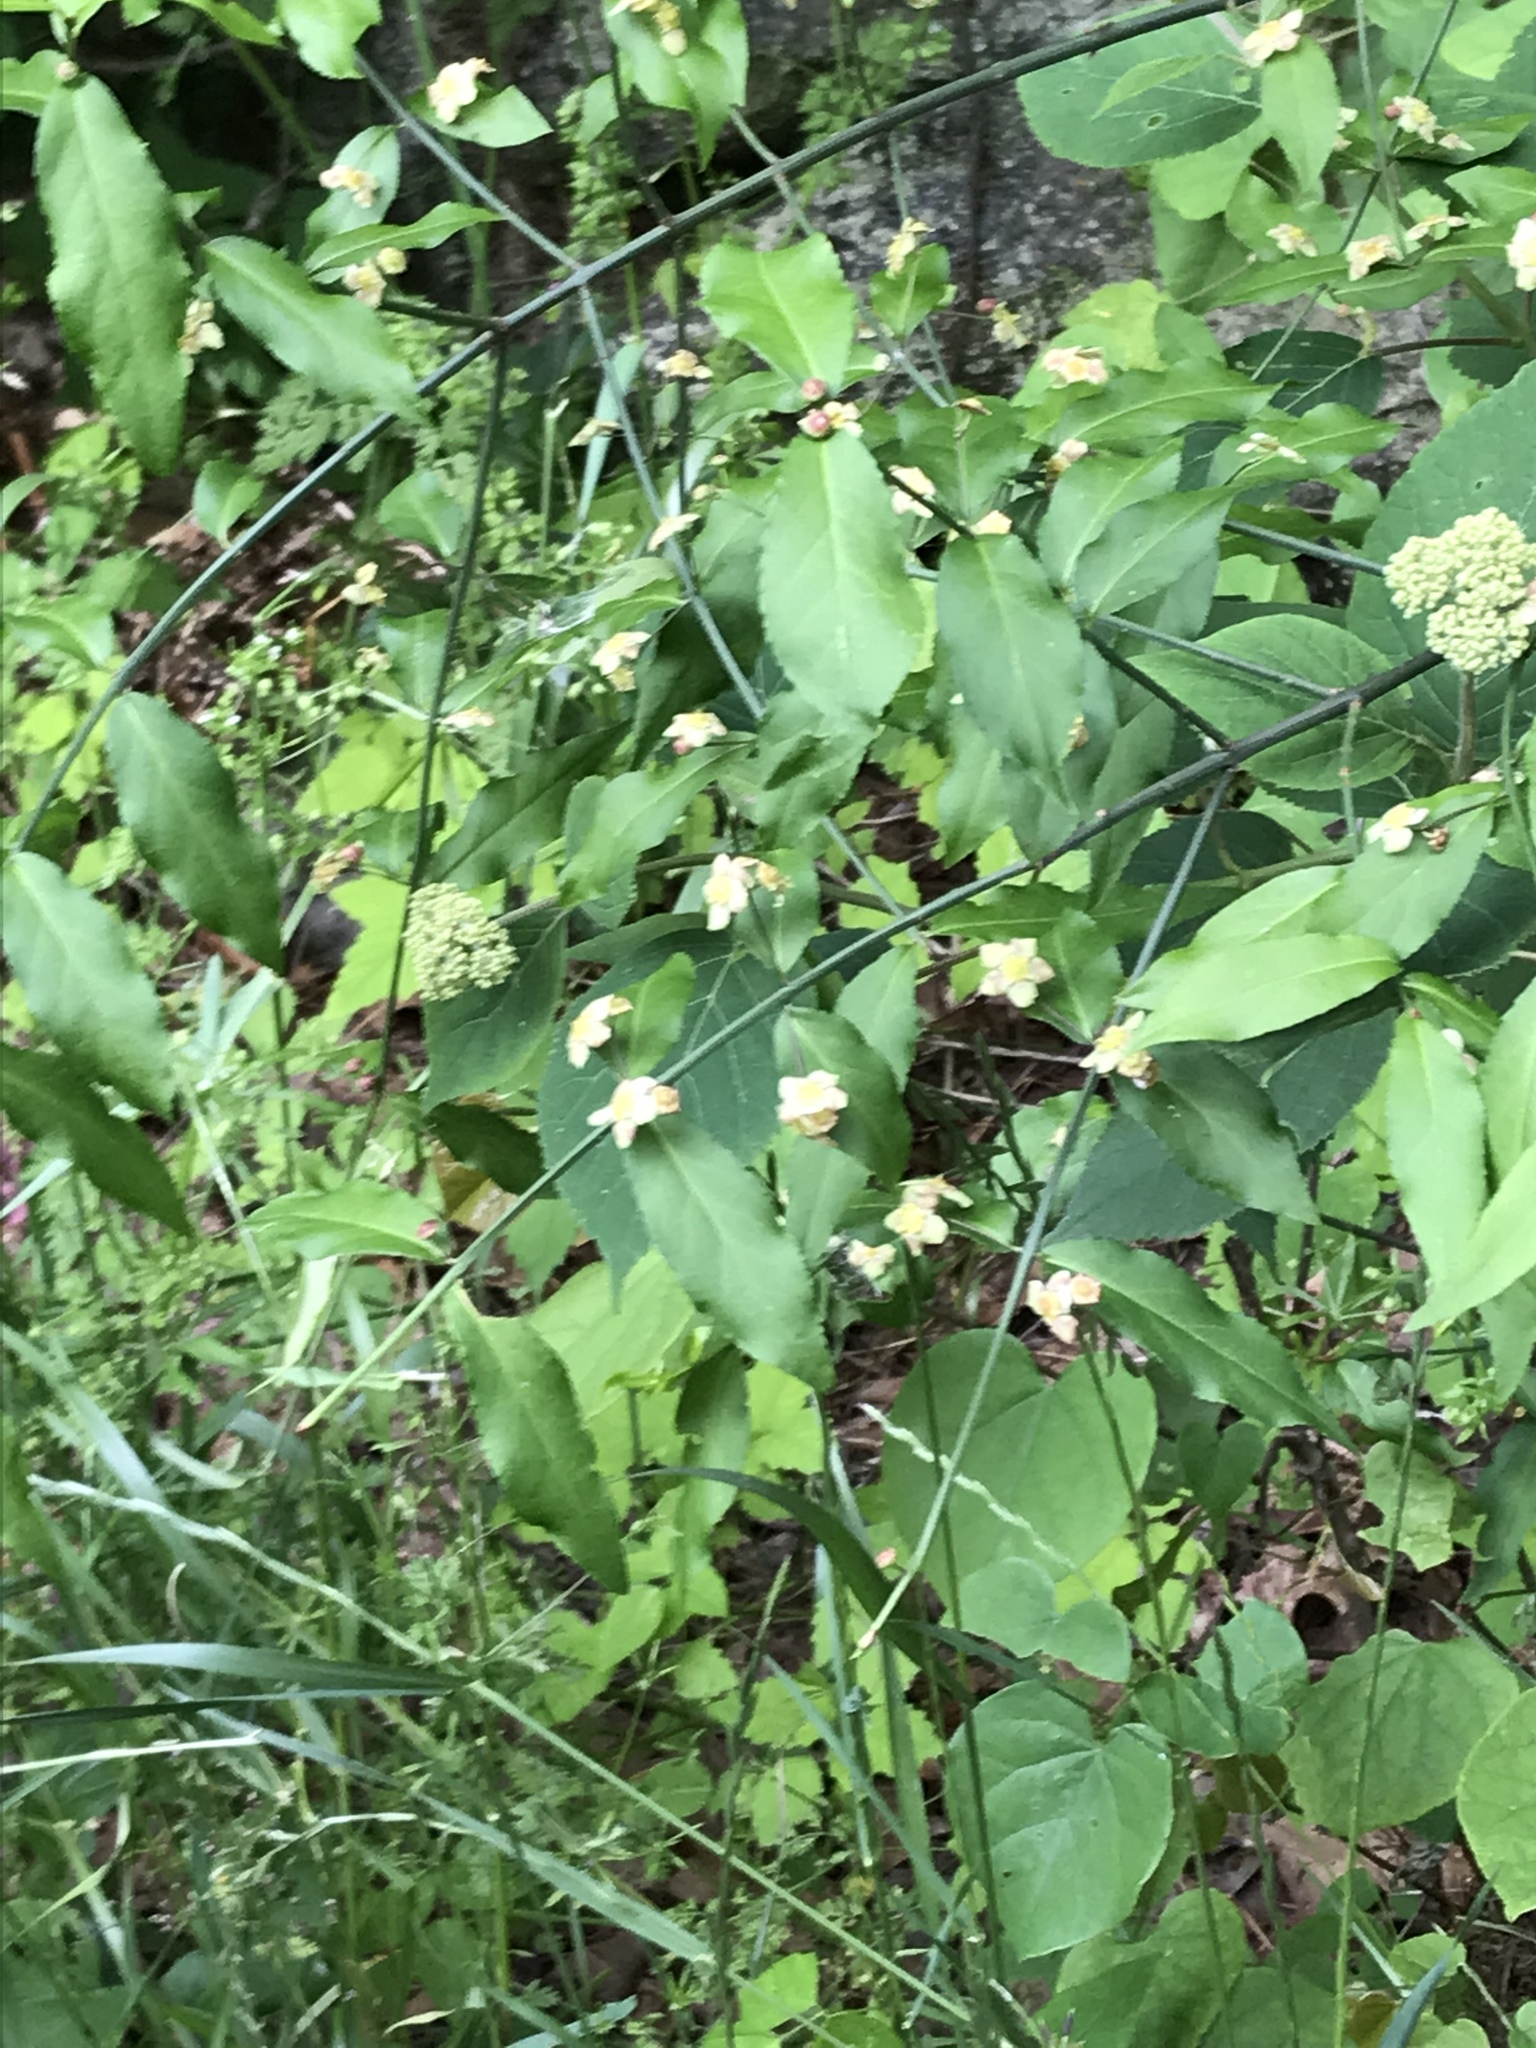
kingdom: Plantae
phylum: Tracheophyta
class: Magnoliopsida
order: Celastrales
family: Celastraceae
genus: Euonymus
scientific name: Euonymus americanus
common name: Bursting-heart
